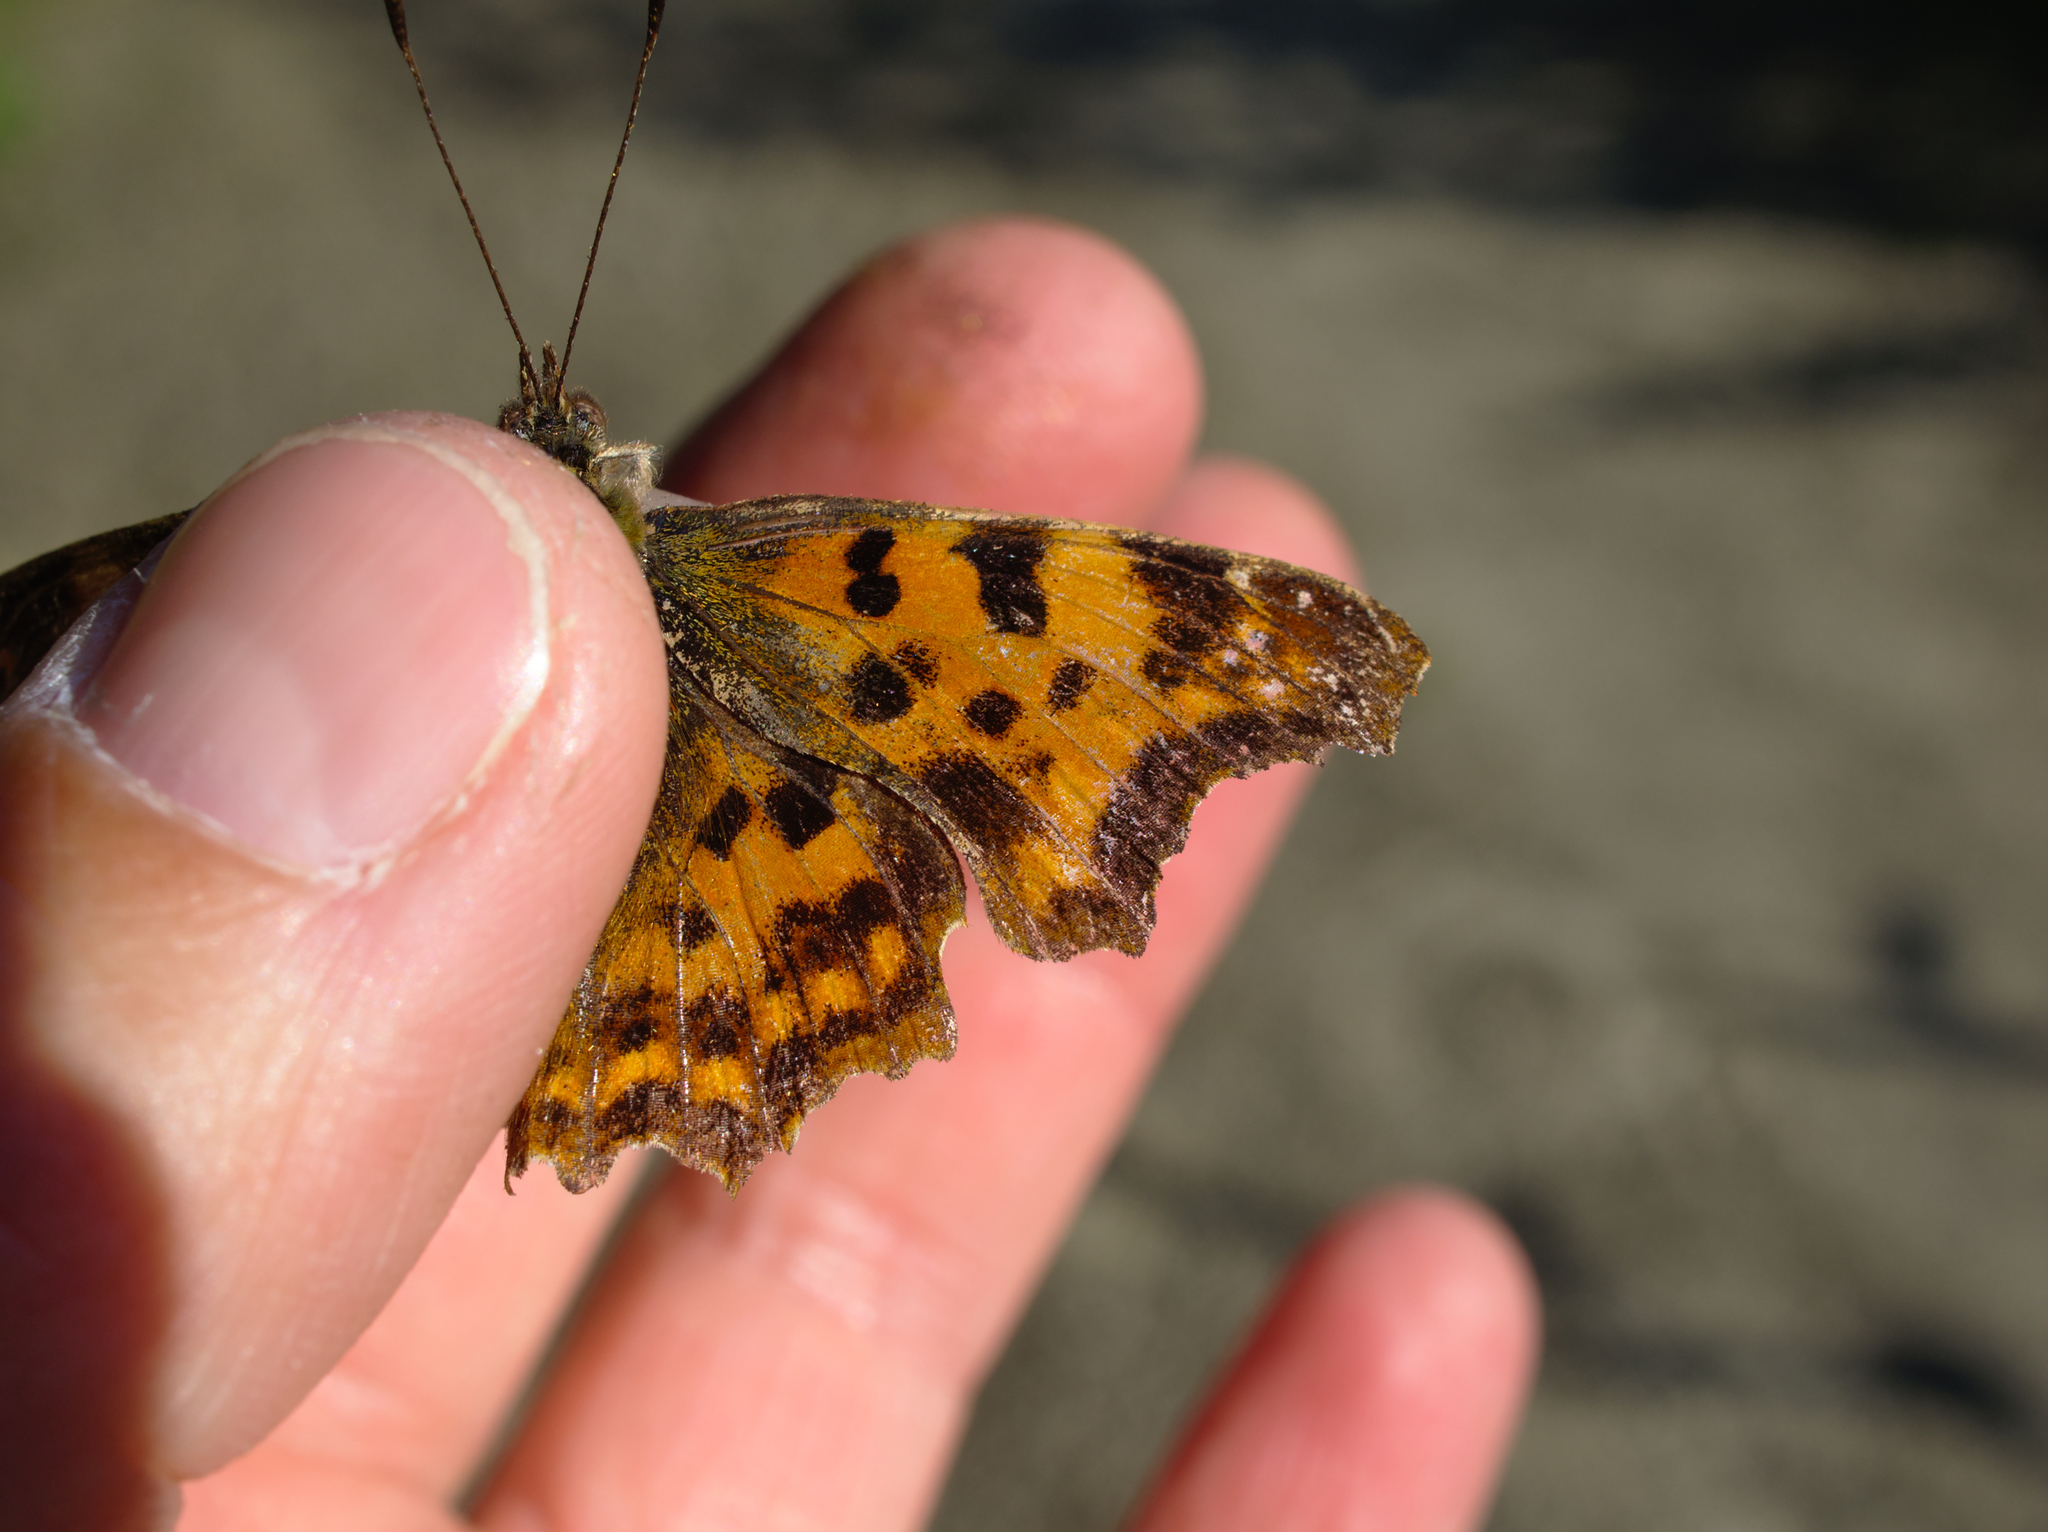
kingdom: Animalia
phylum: Arthropoda
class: Insecta
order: Lepidoptera
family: Nymphalidae
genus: Polygonia
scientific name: Polygonia c-album
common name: Comma
